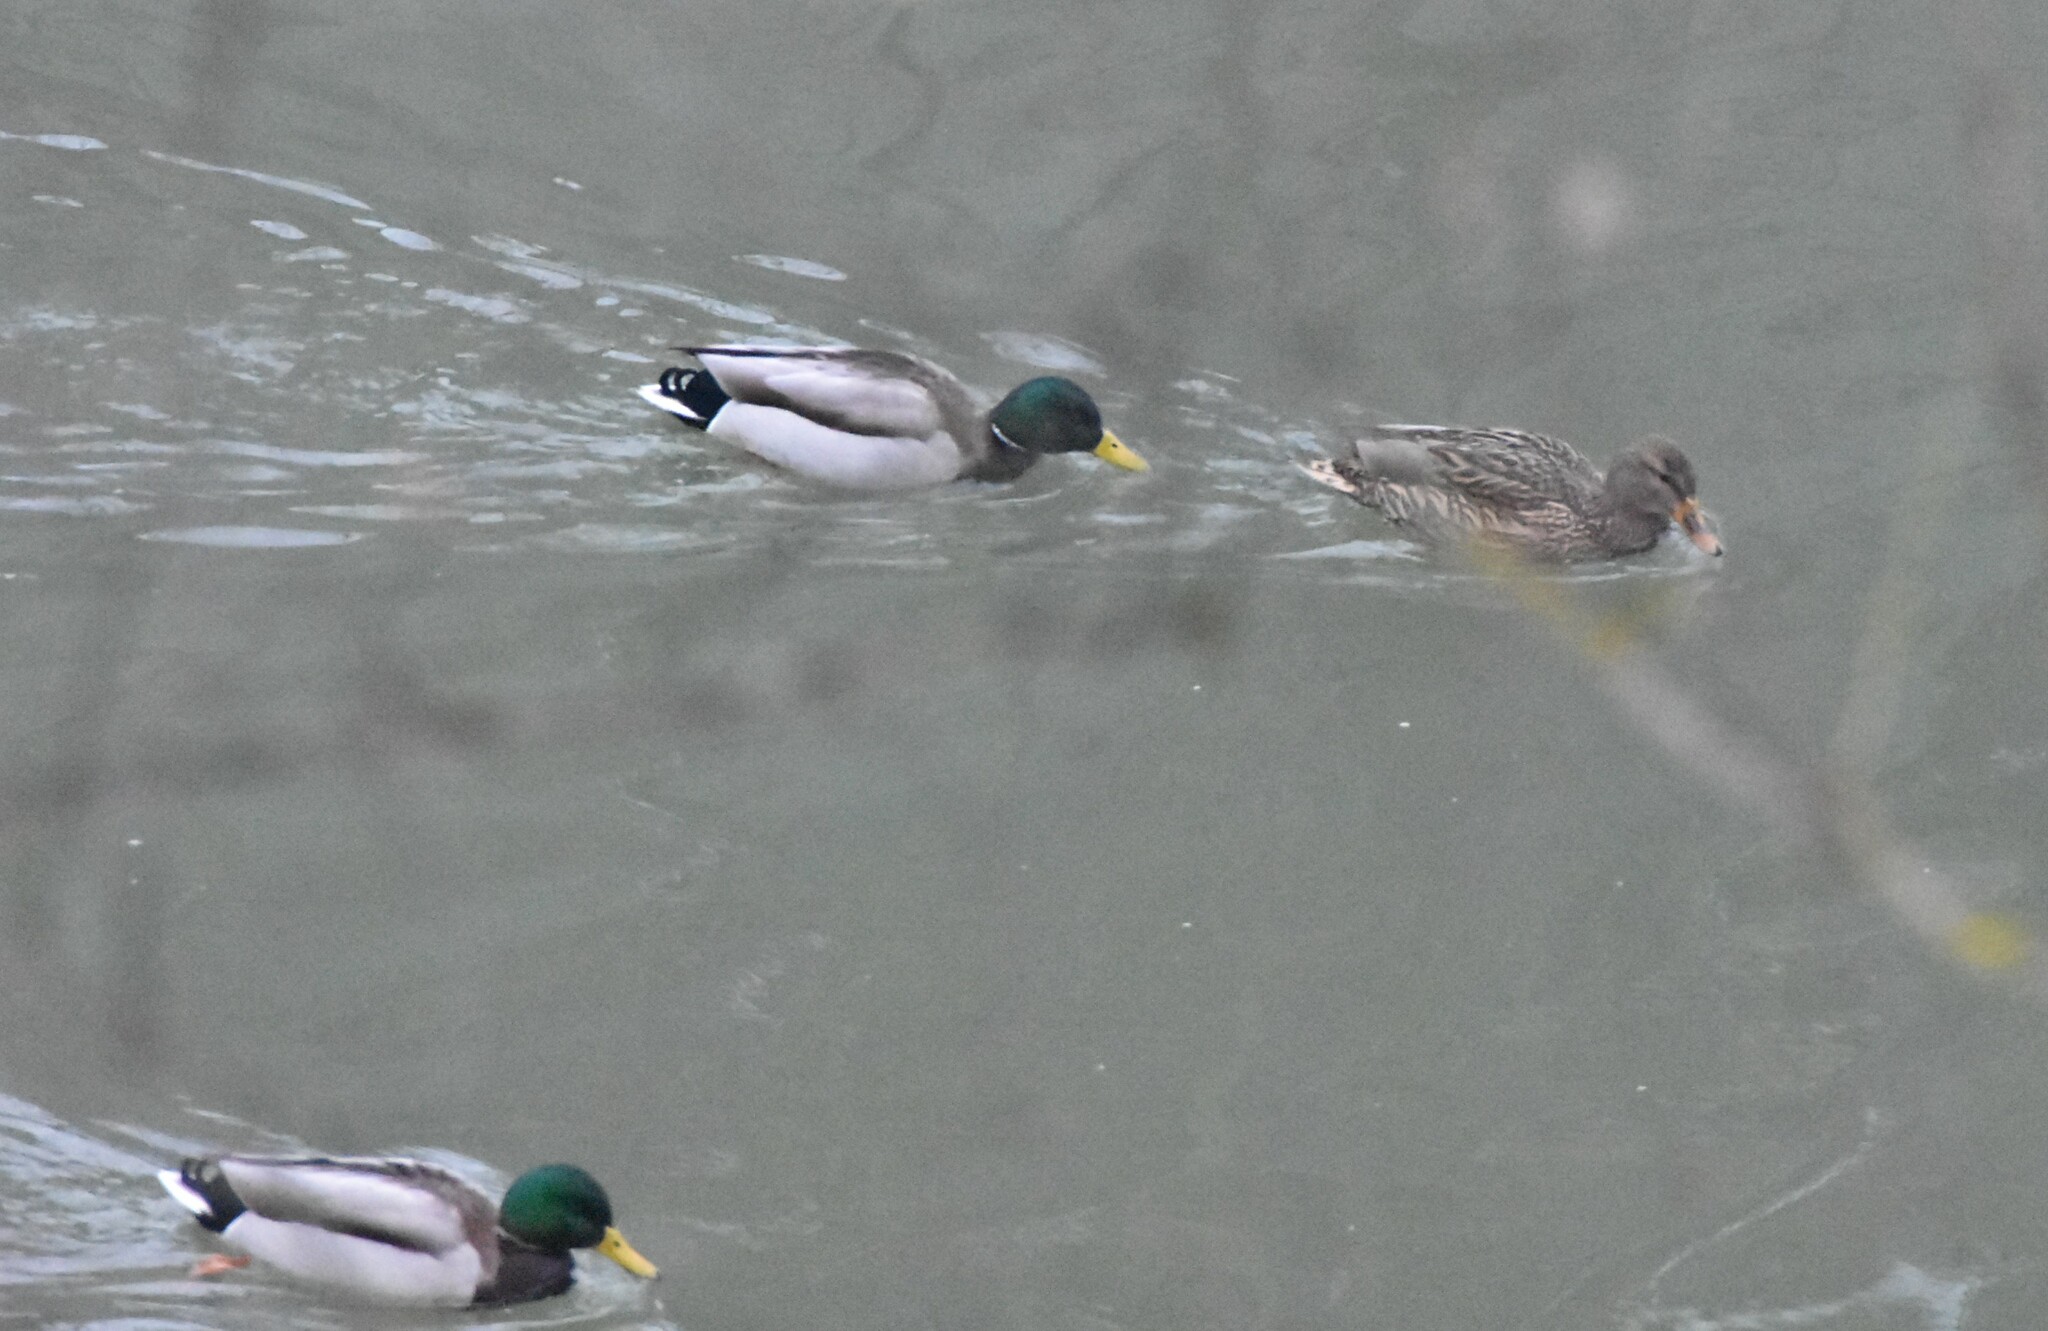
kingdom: Animalia
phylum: Chordata
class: Aves
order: Anseriformes
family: Anatidae
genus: Anas
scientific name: Anas platyrhynchos
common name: Mallard
